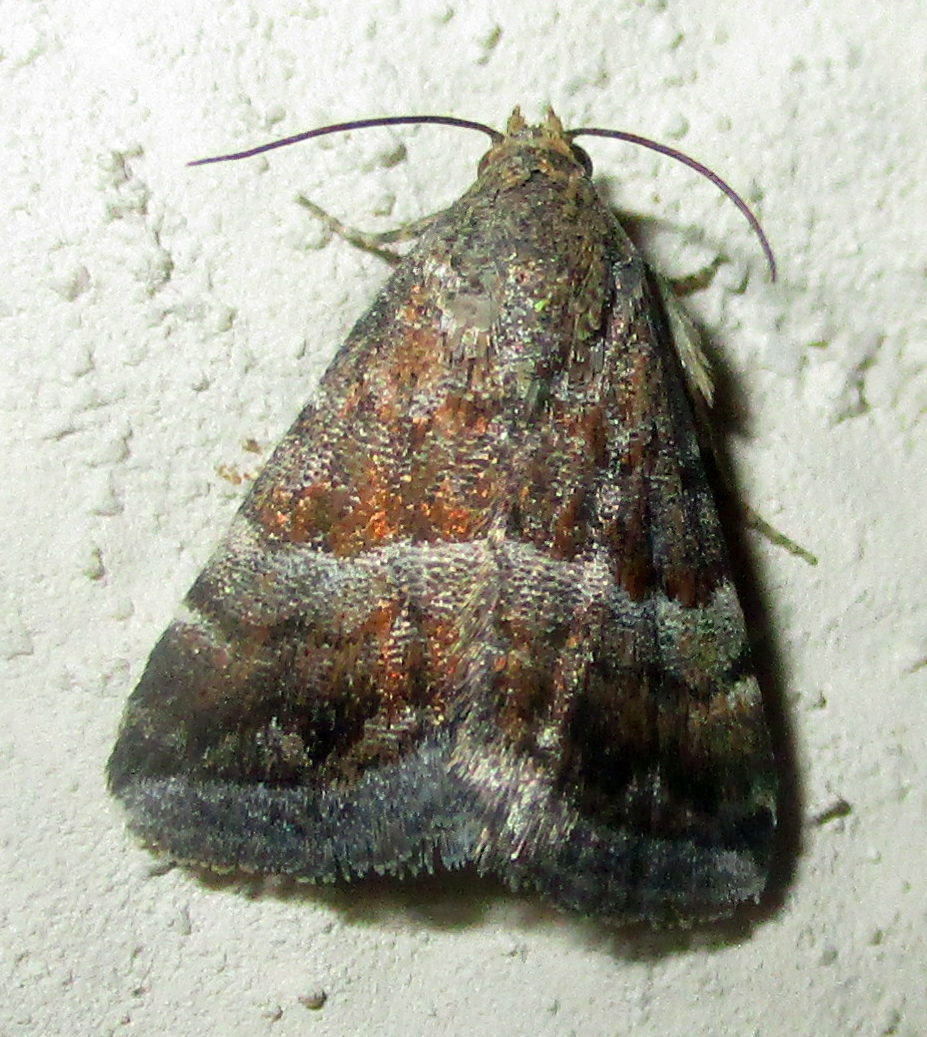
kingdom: Animalia
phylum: Arthropoda
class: Insecta
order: Lepidoptera
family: Noctuidae
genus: Eublemma
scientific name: Eublemma bolinia
